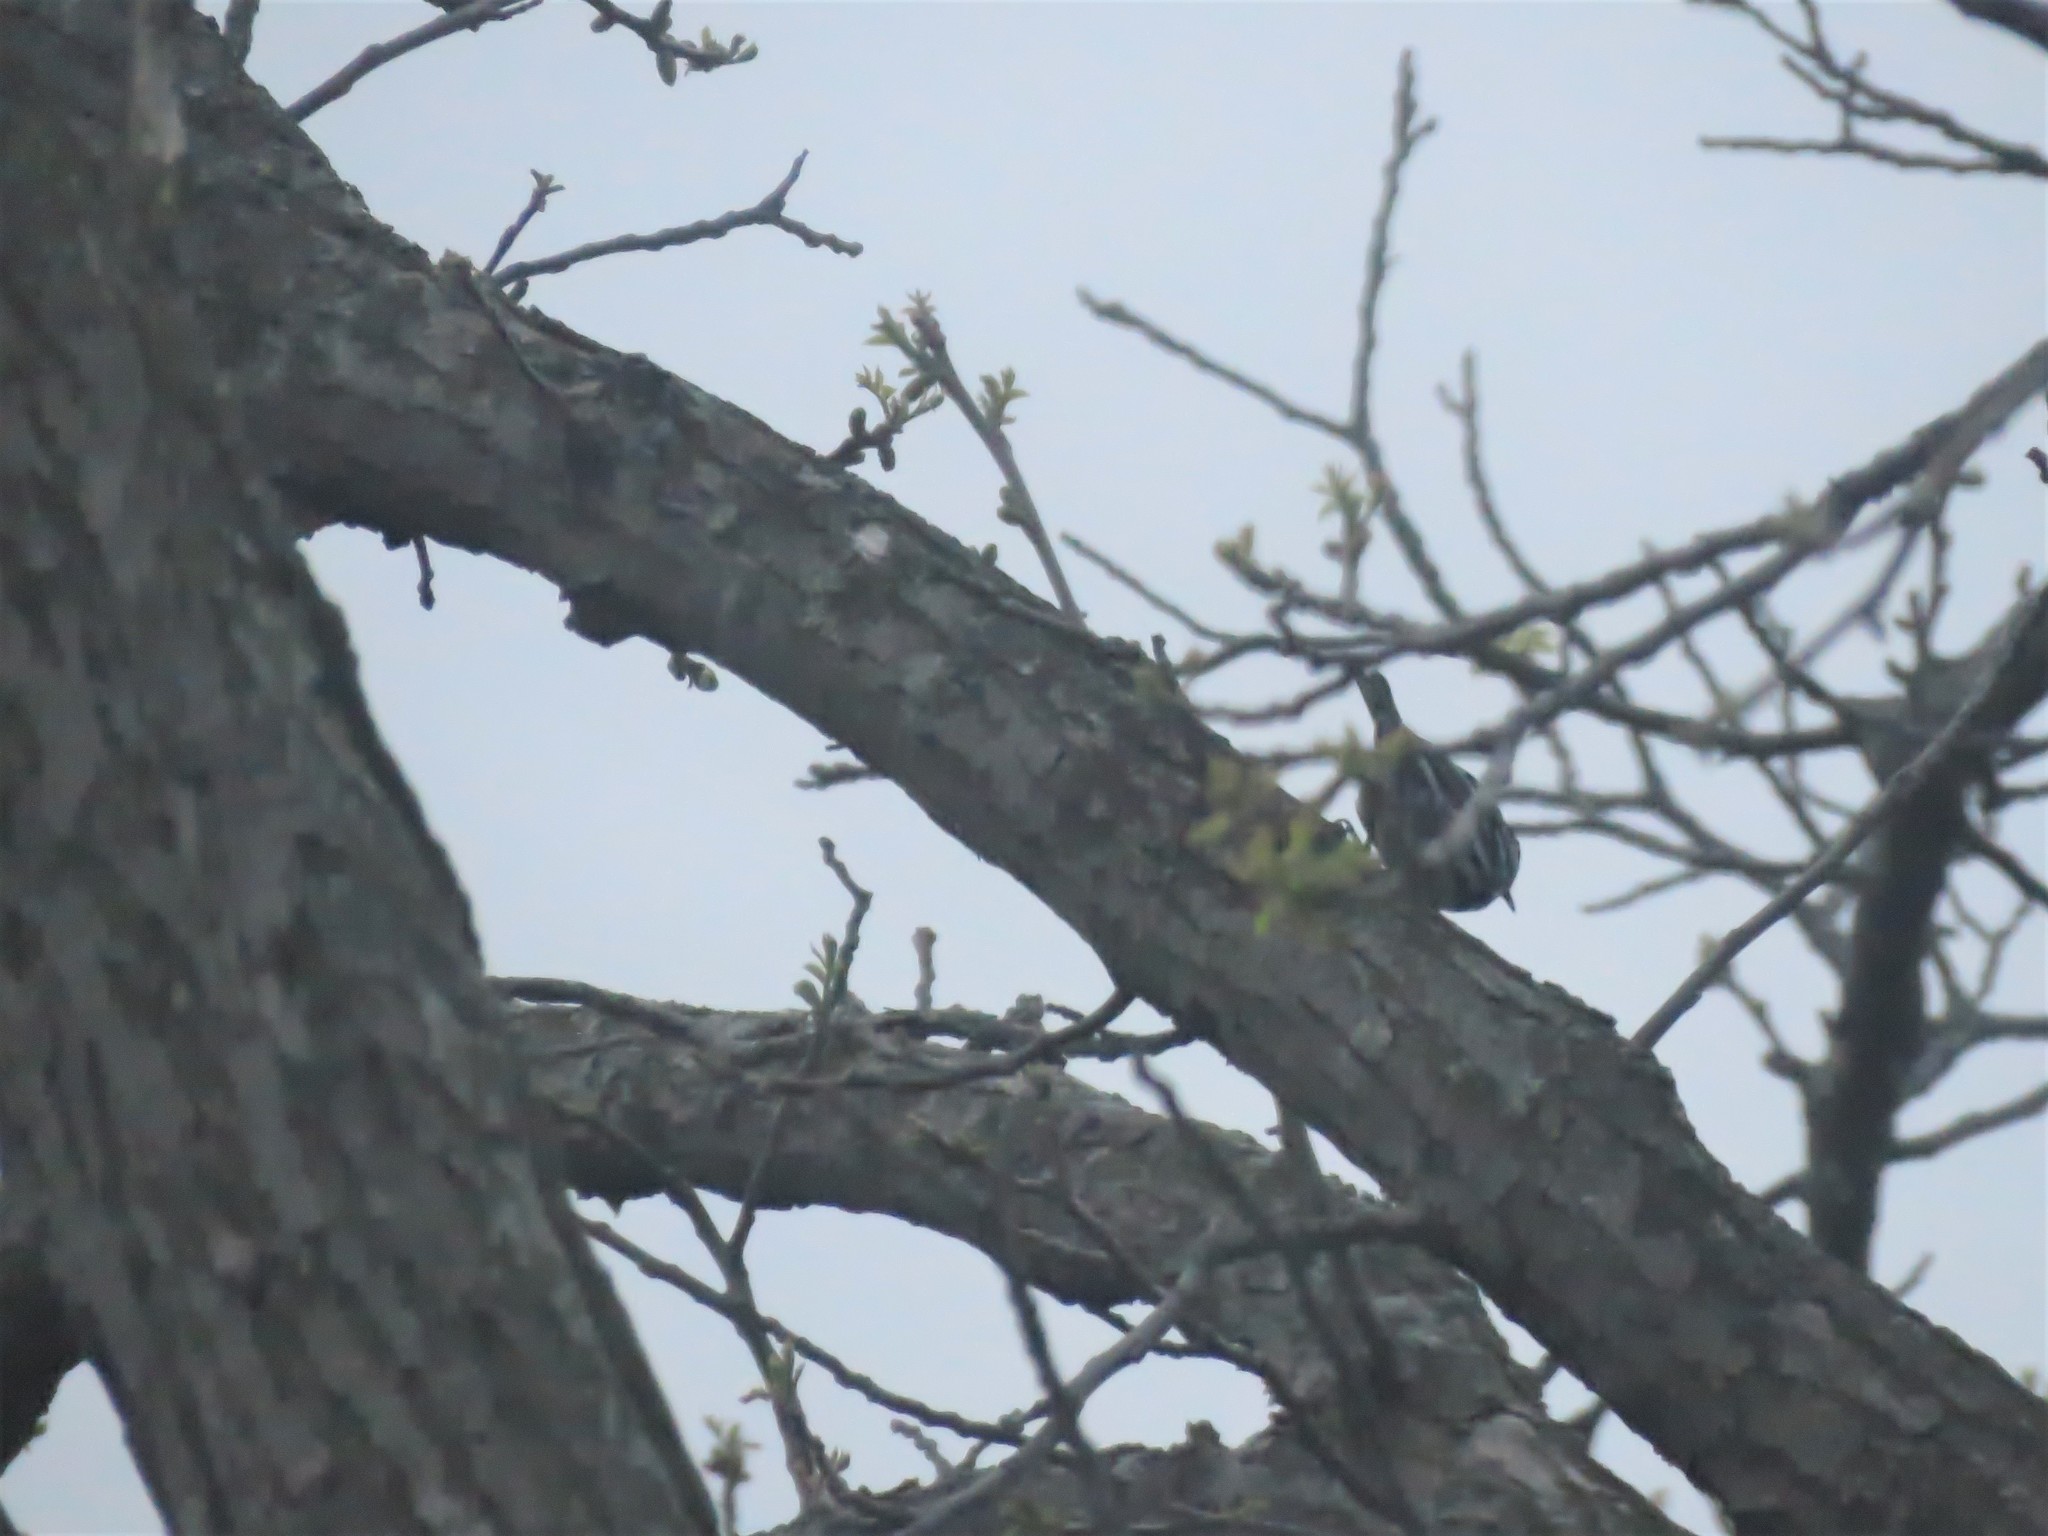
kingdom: Animalia
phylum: Chordata
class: Aves
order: Passeriformes
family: Parulidae
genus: Mniotilta
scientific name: Mniotilta varia
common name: Black-and-white warbler
